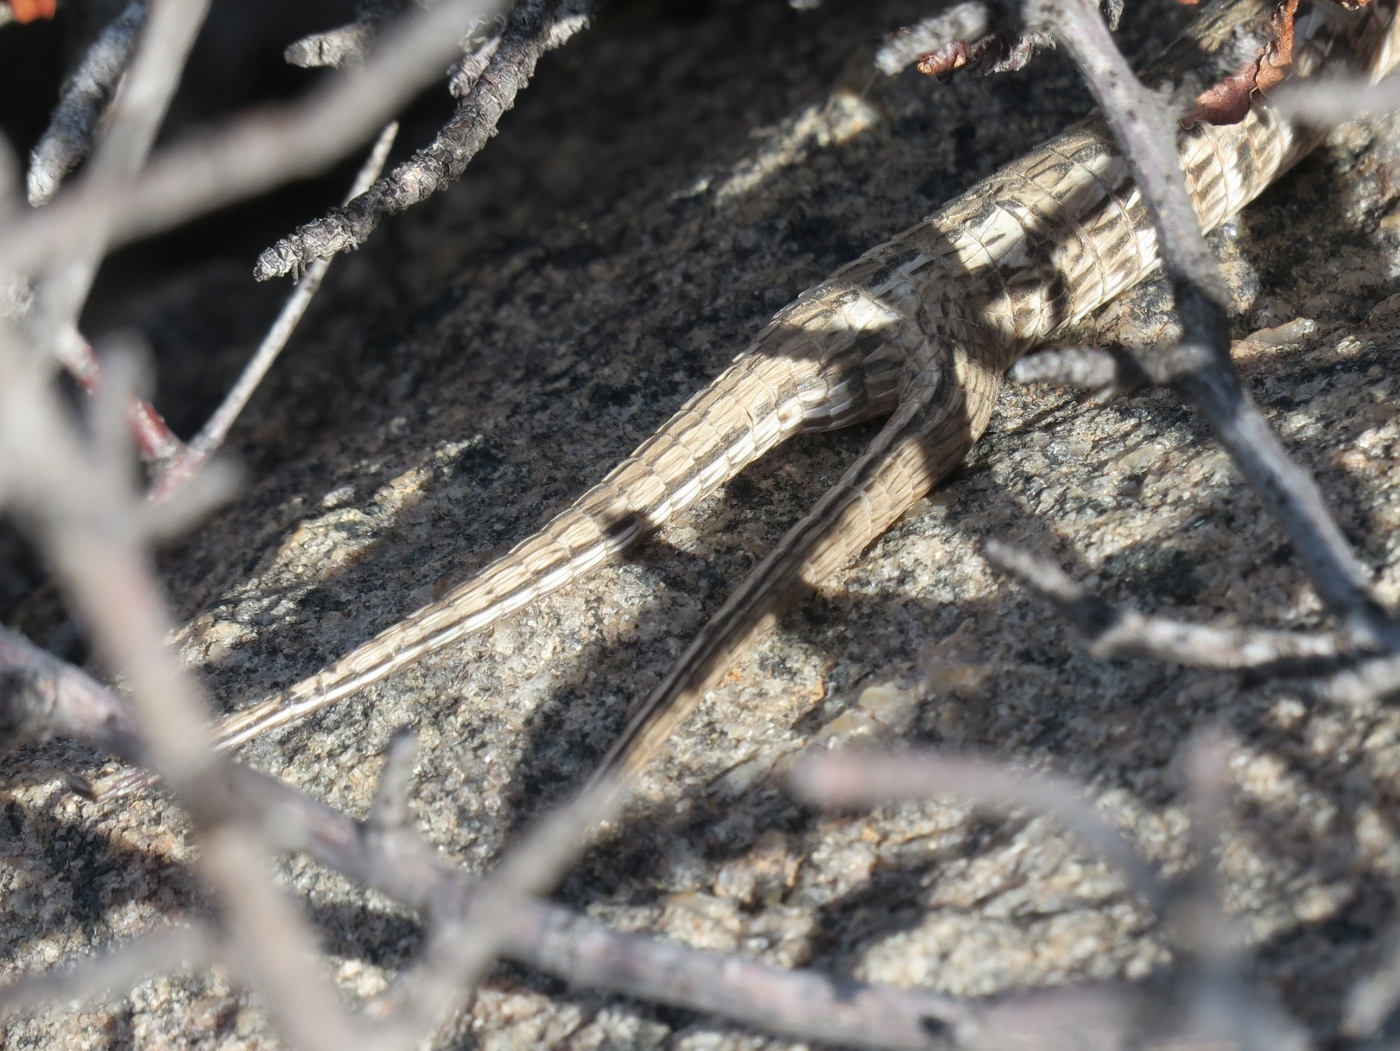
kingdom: Animalia
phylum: Chordata
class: Squamata
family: Gerrhosauridae
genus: Gerrhosaurus
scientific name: Gerrhosaurus typicus
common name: Karoo plated lizard
